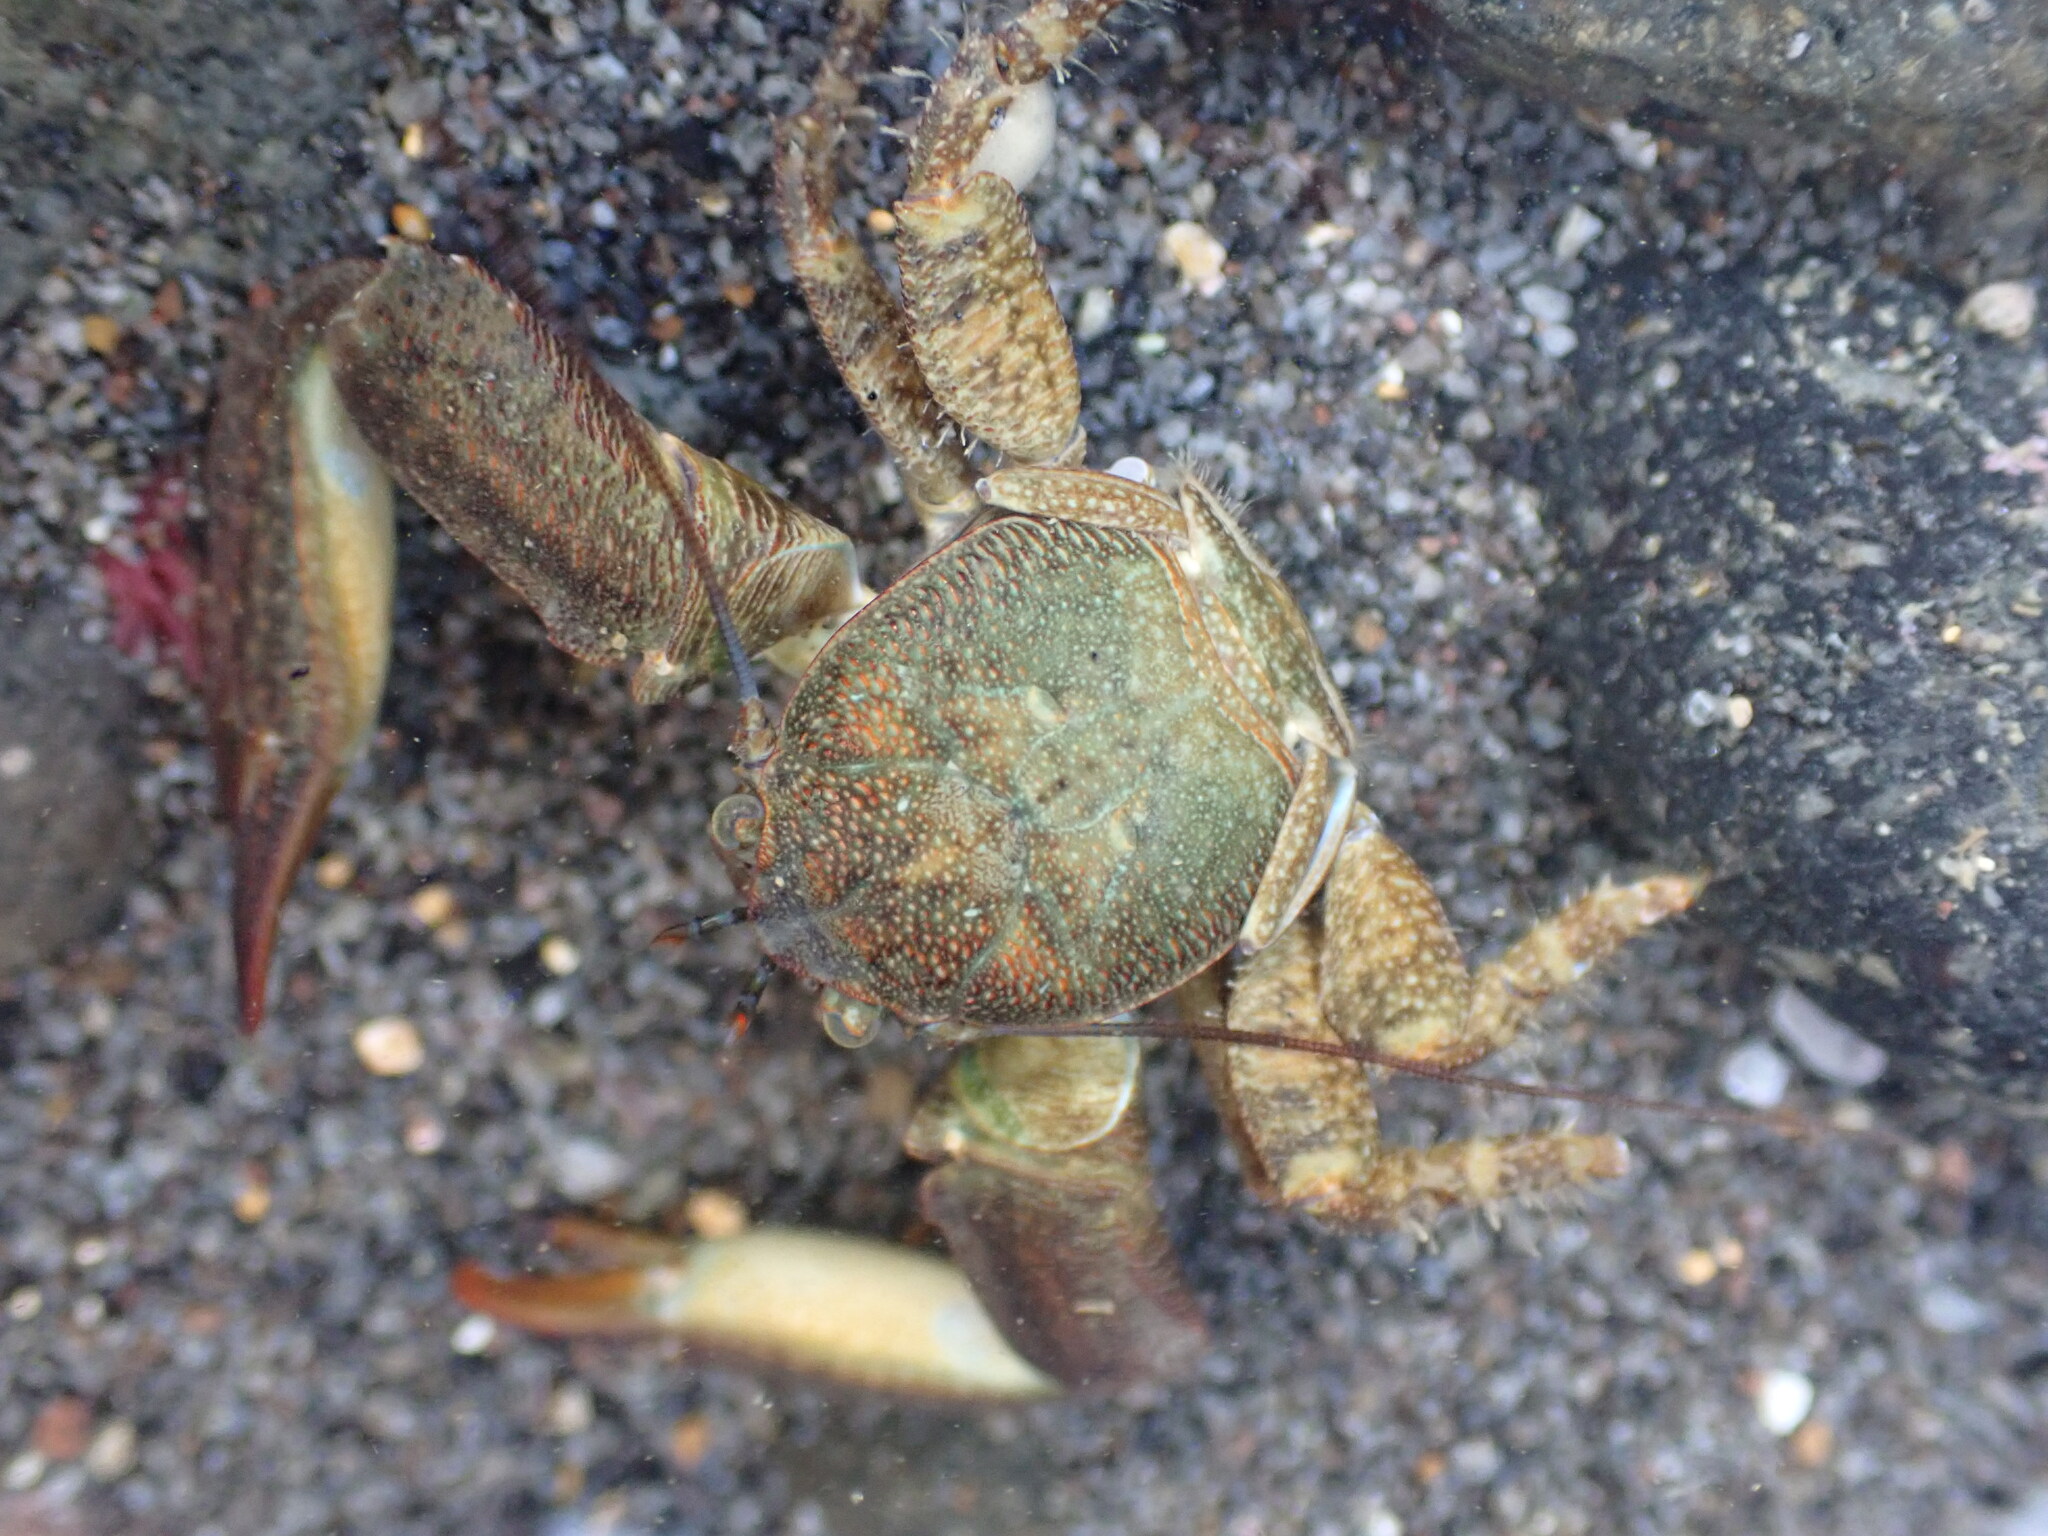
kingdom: Animalia
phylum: Arthropoda
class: Malacostraca
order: Decapoda
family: Porcellanidae
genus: Petrolisthes
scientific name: Petrolisthes elongatus
